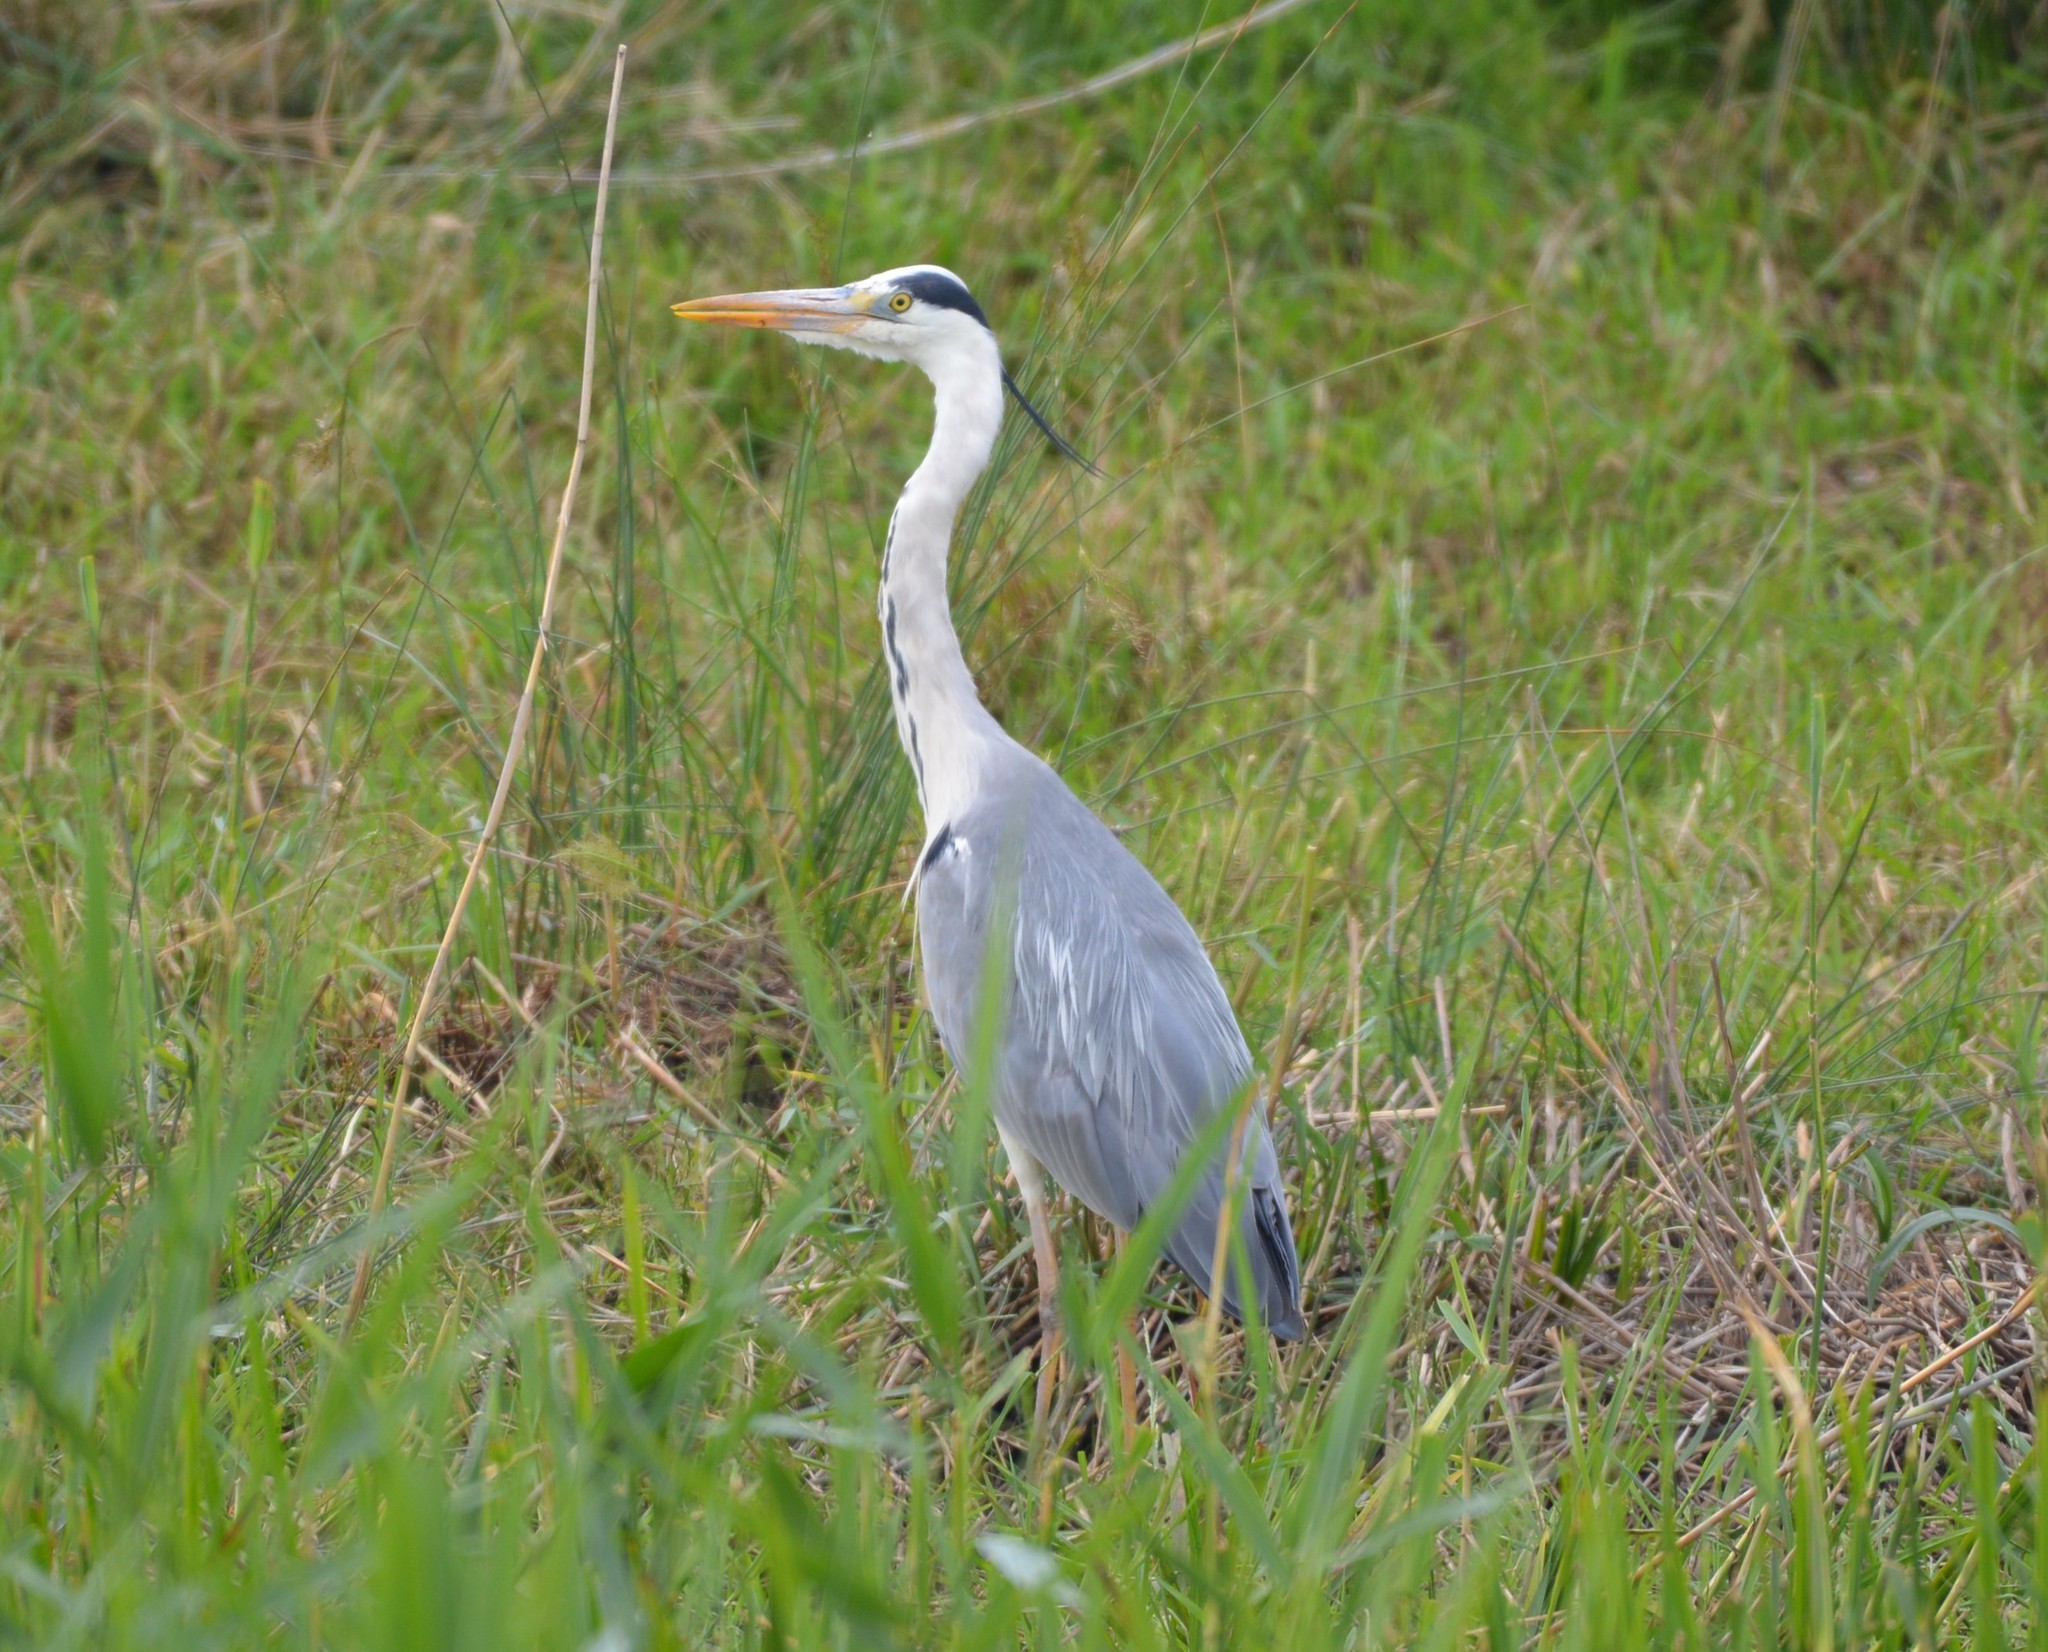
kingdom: Animalia
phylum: Chordata
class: Aves
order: Pelecaniformes
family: Ardeidae
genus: Ardea
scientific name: Ardea cinerea
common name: Grey heron
